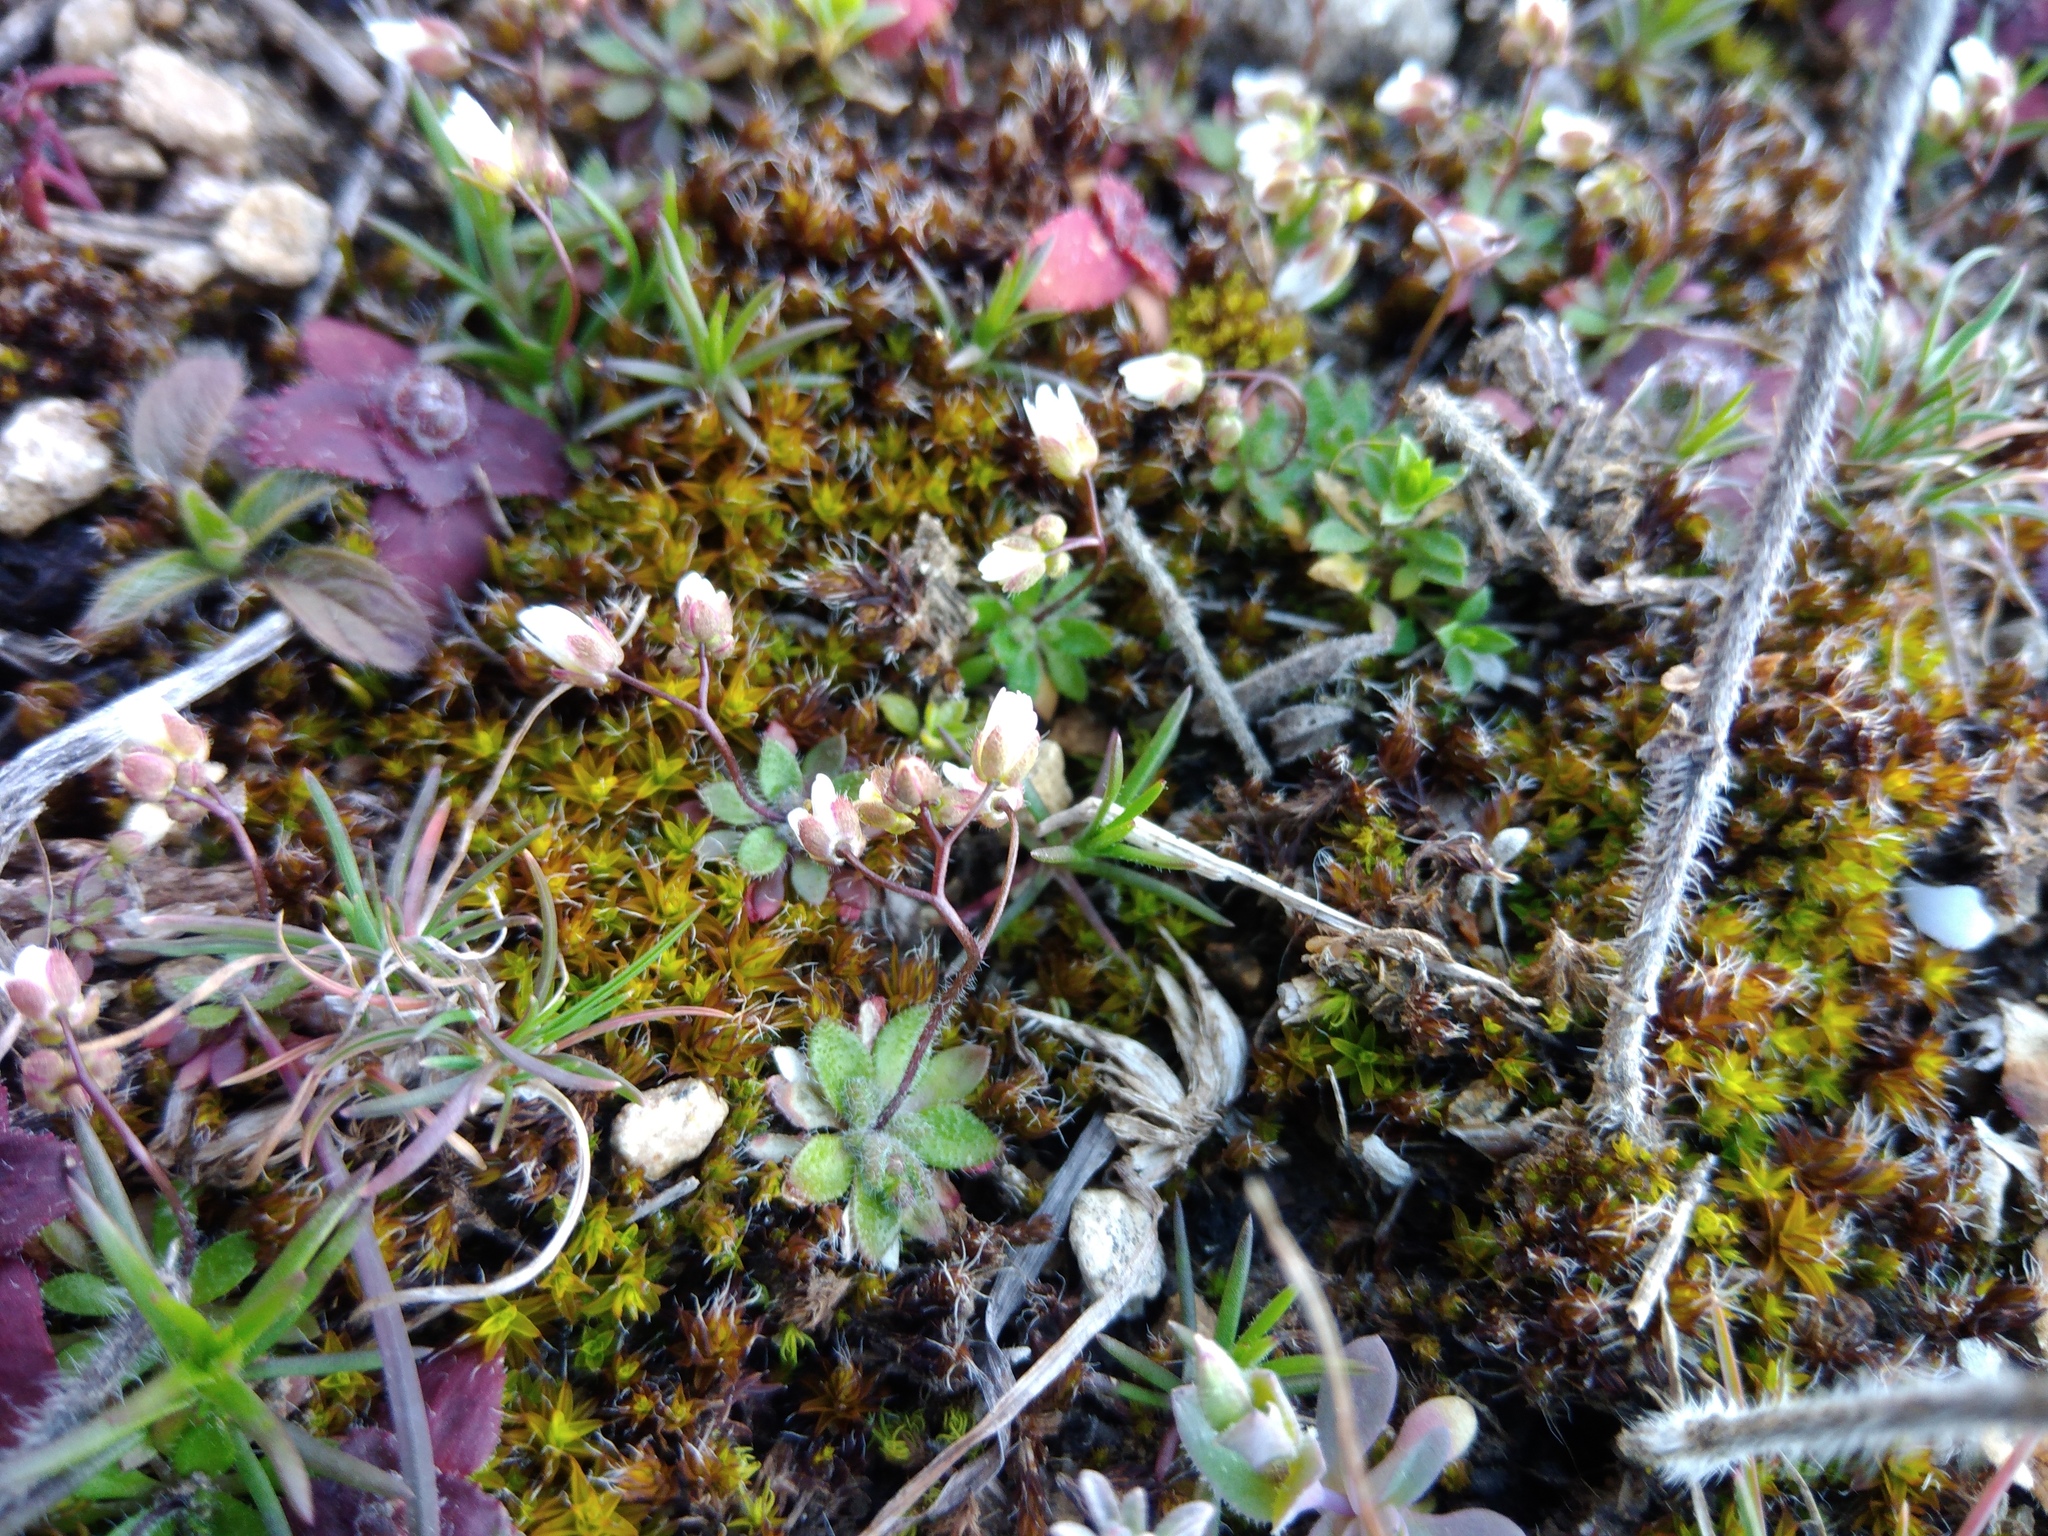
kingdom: Plantae
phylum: Tracheophyta
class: Magnoliopsida
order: Brassicales
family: Brassicaceae
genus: Draba
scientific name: Draba verna
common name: Spring draba
